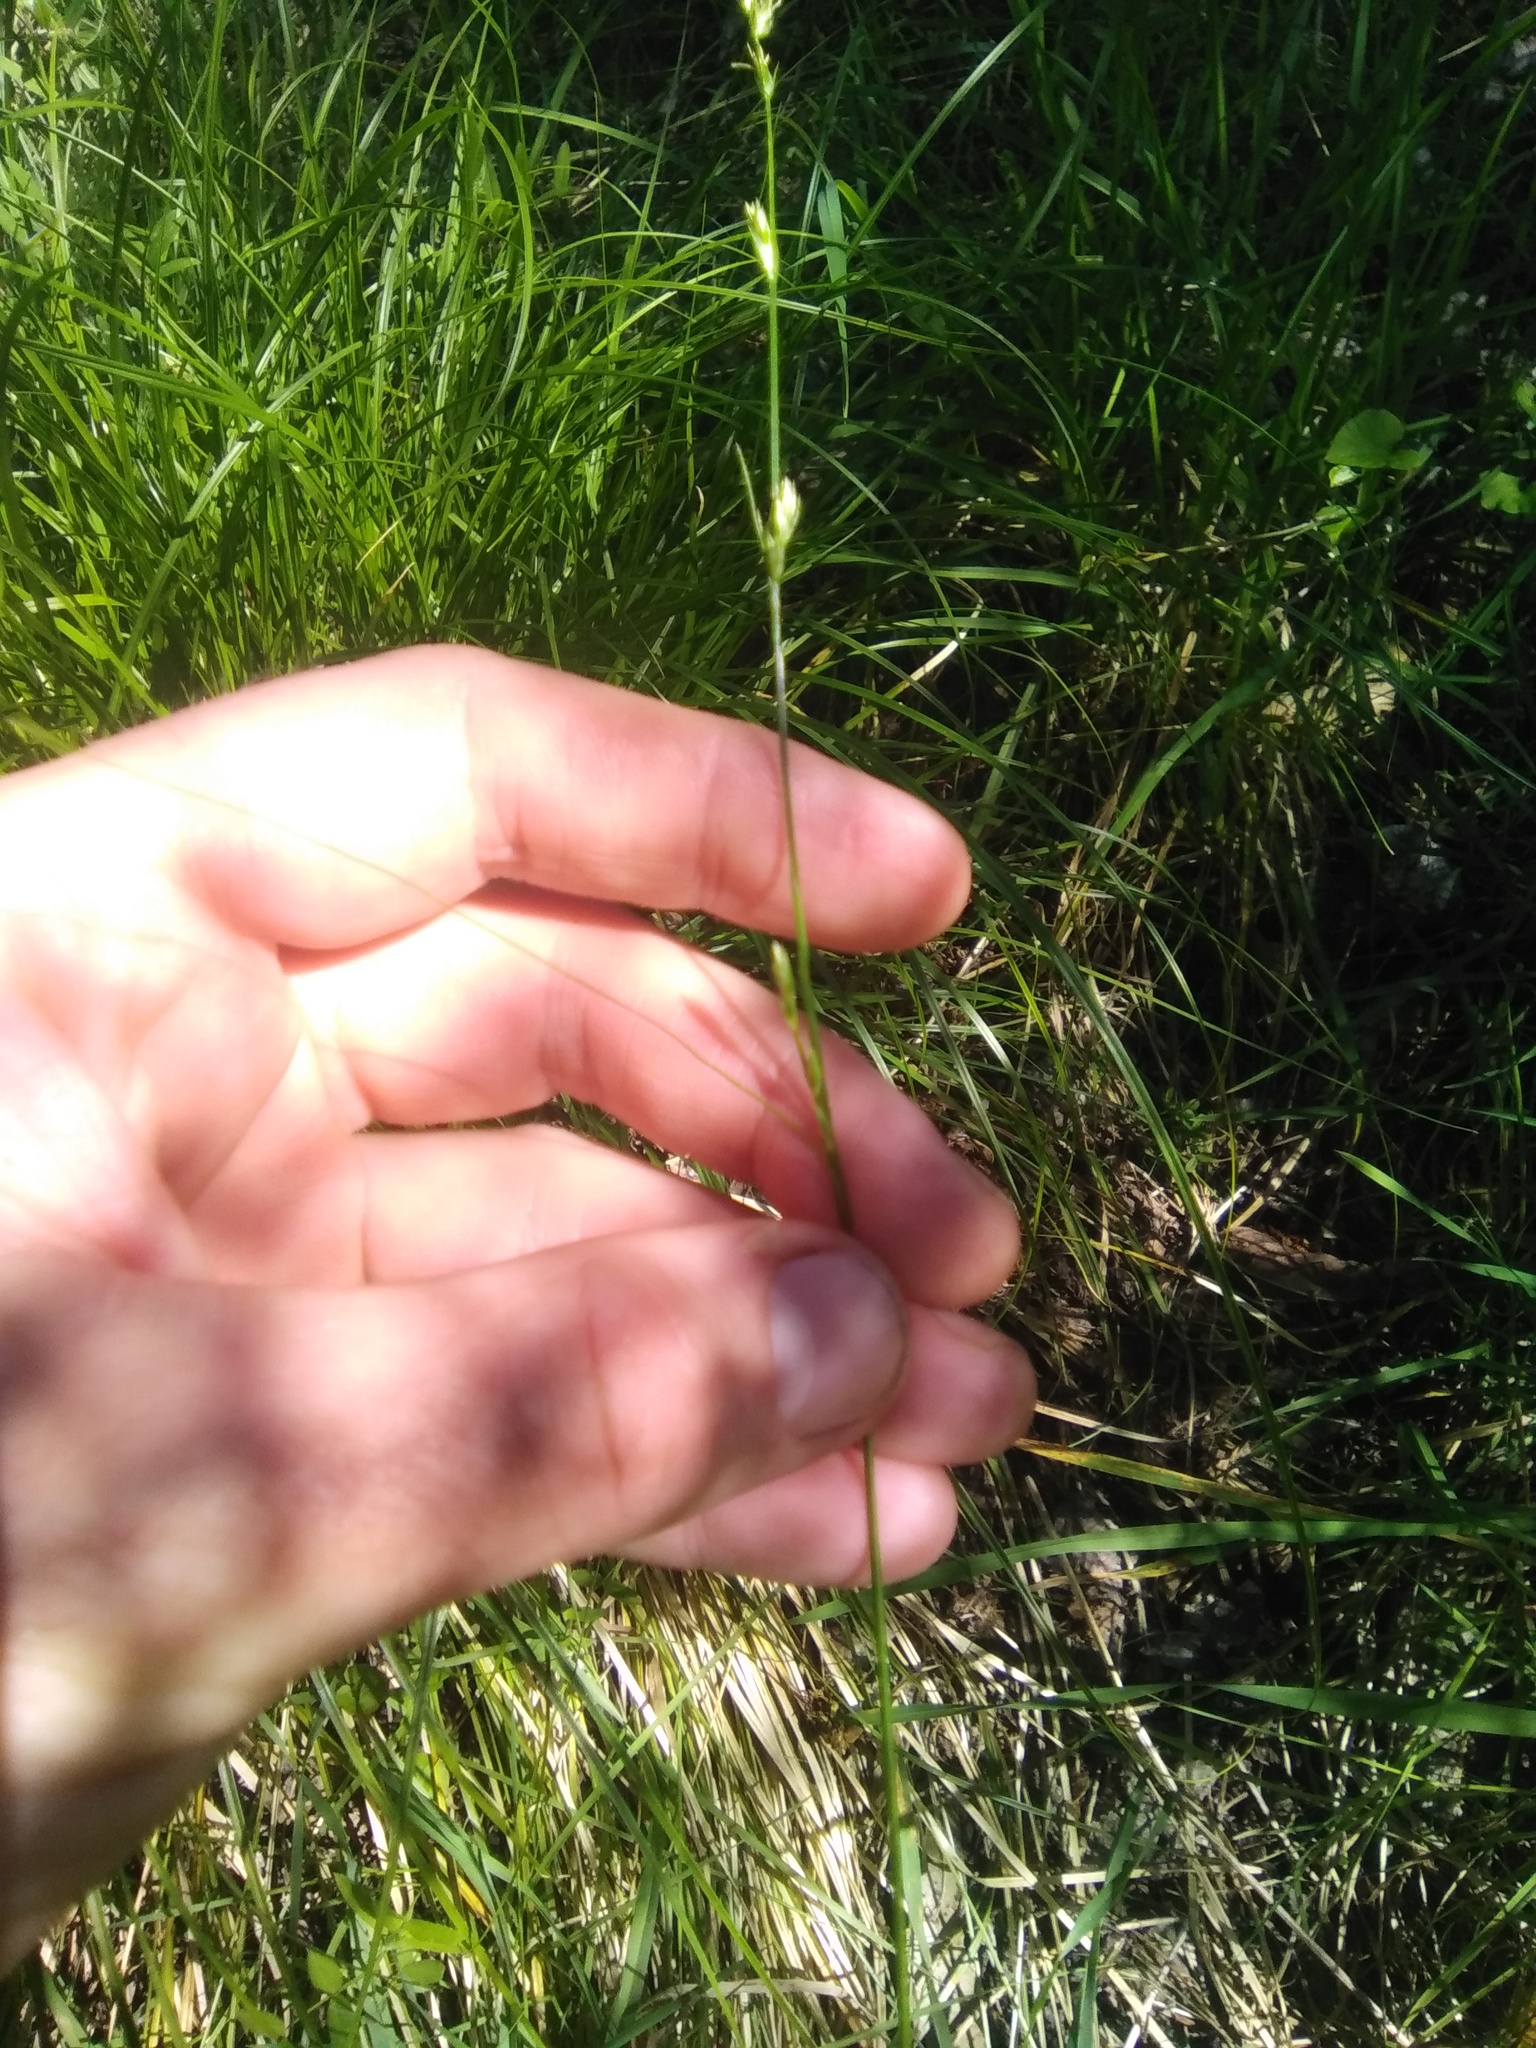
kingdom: Plantae
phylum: Tracheophyta
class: Liliopsida
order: Poales
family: Cyperaceae
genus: Carex
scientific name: Carex divulsa
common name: Grassland sedge
